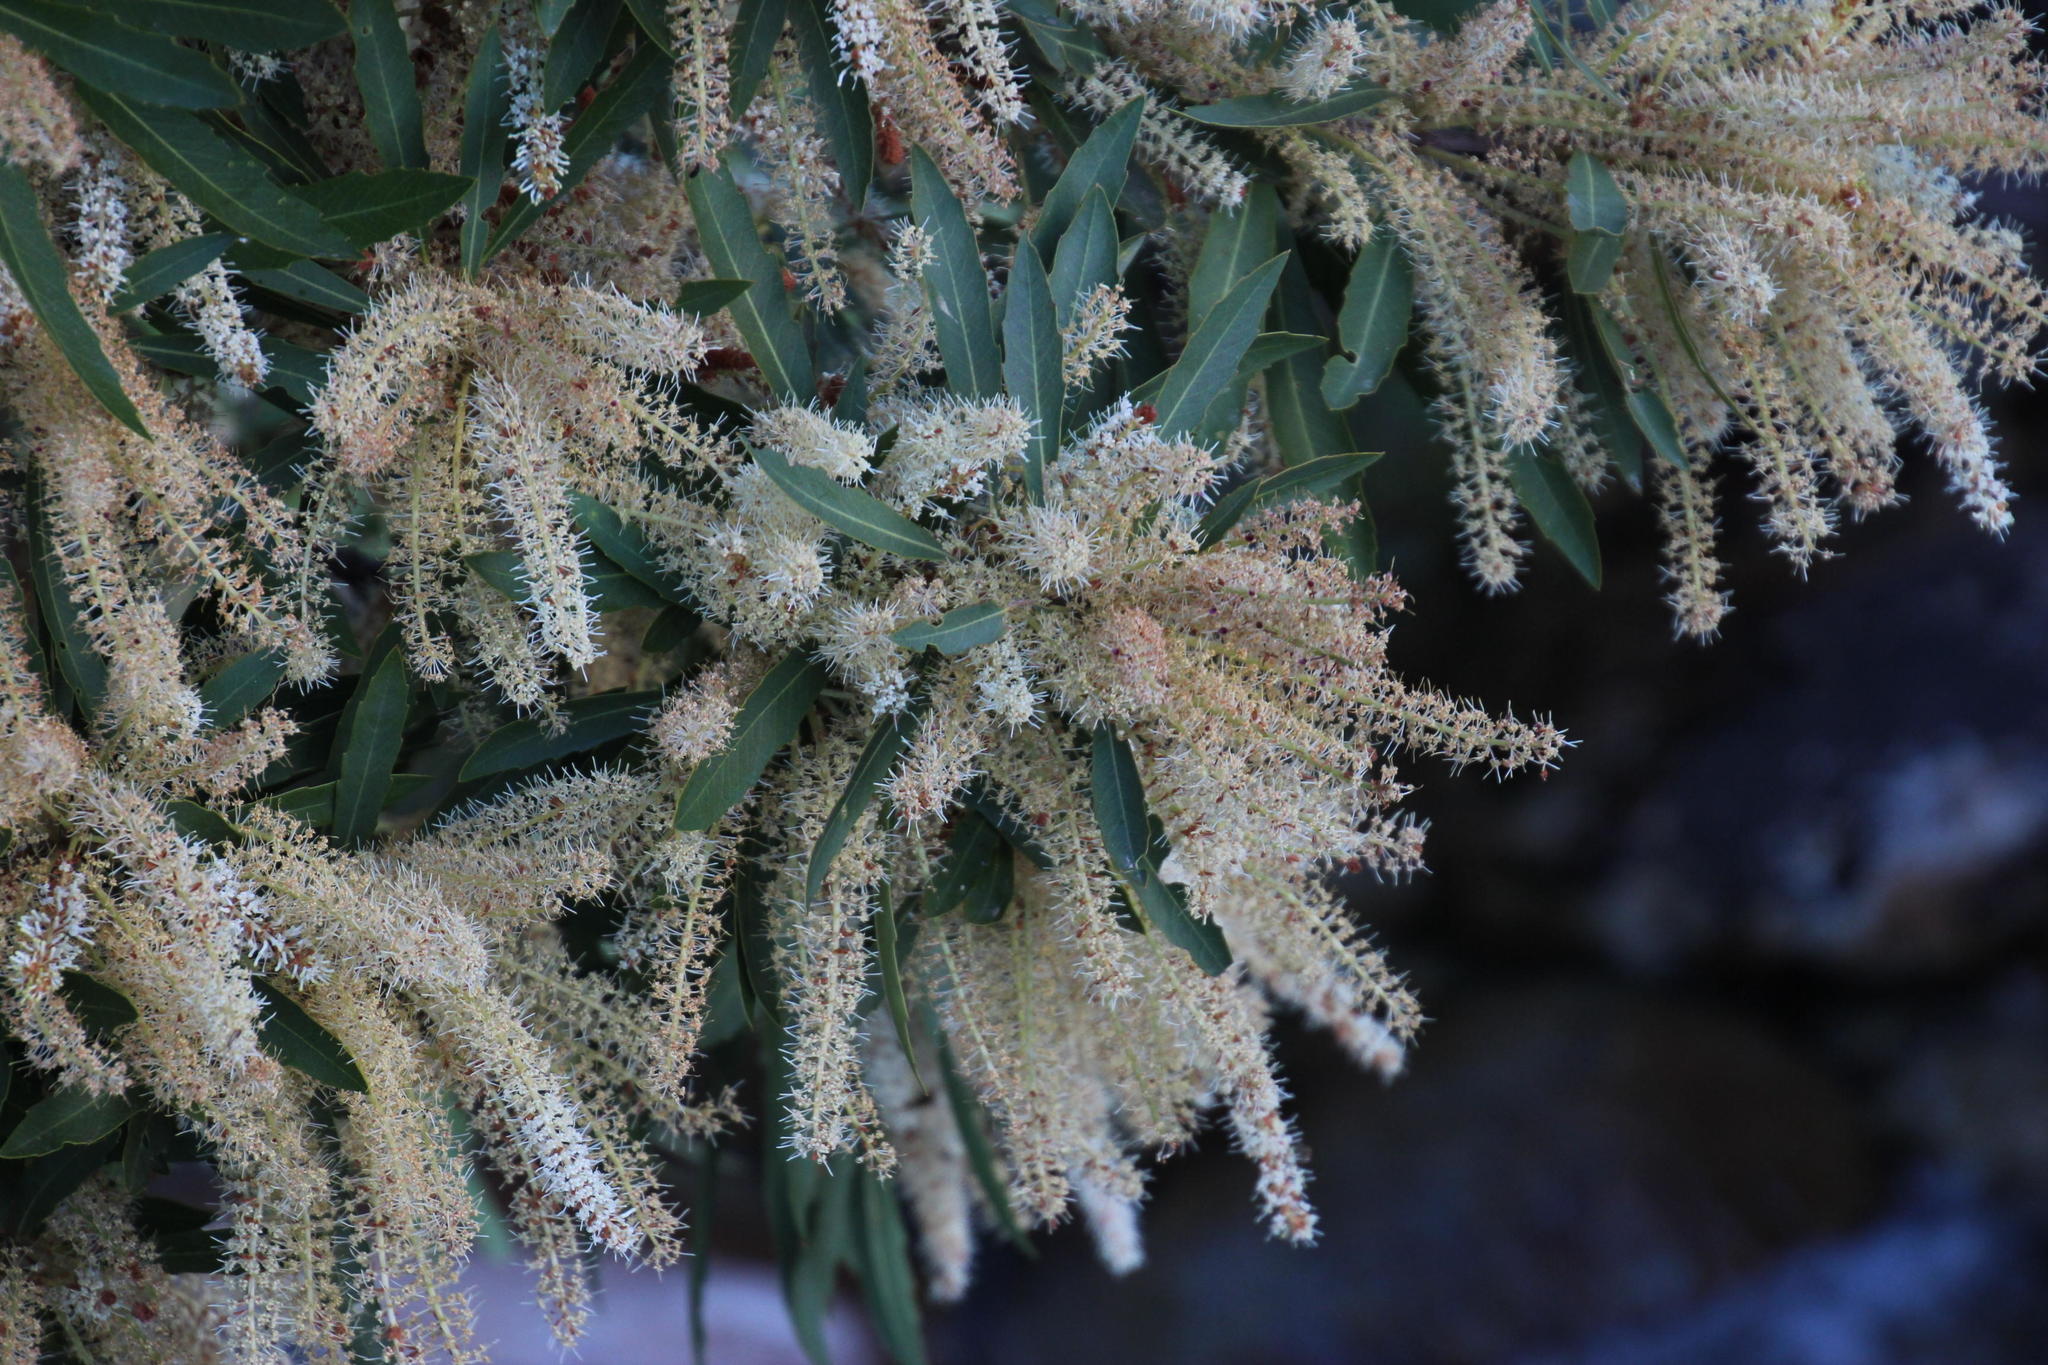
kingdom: Plantae
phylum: Tracheophyta
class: Magnoliopsida
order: Proteales
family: Proteaceae
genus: Brabejum
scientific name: Brabejum stellatifolium
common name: Wild almond
